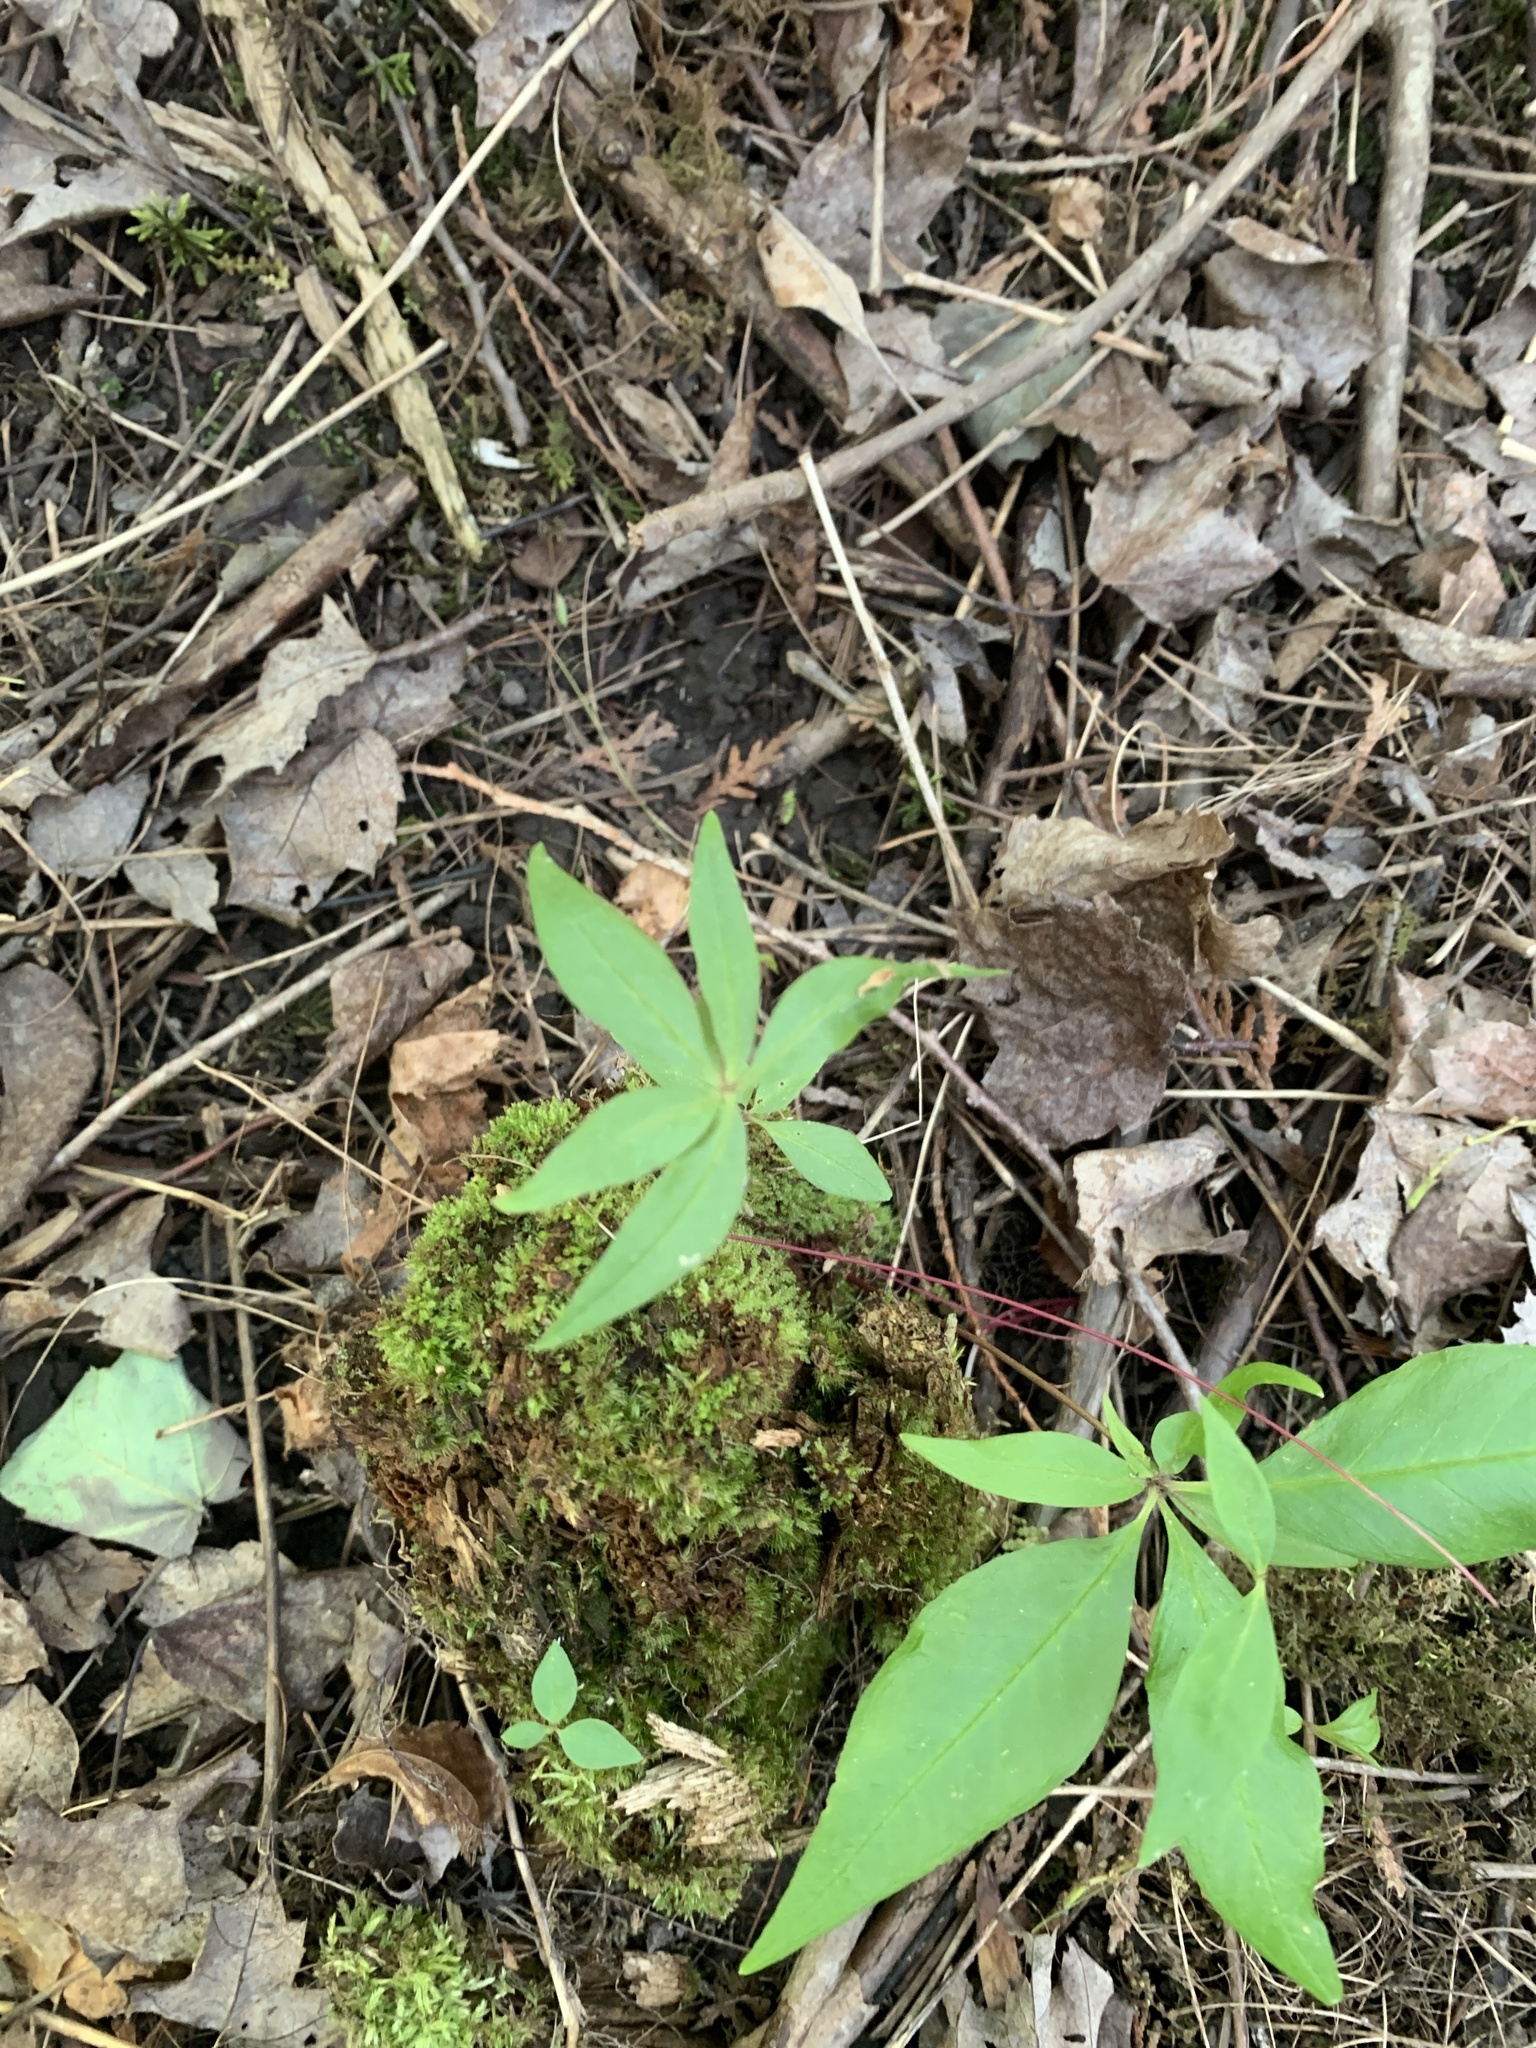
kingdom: Plantae
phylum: Tracheophyta
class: Magnoliopsida
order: Ericales
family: Primulaceae
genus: Lysimachia
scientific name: Lysimachia borealis
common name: American starflower
